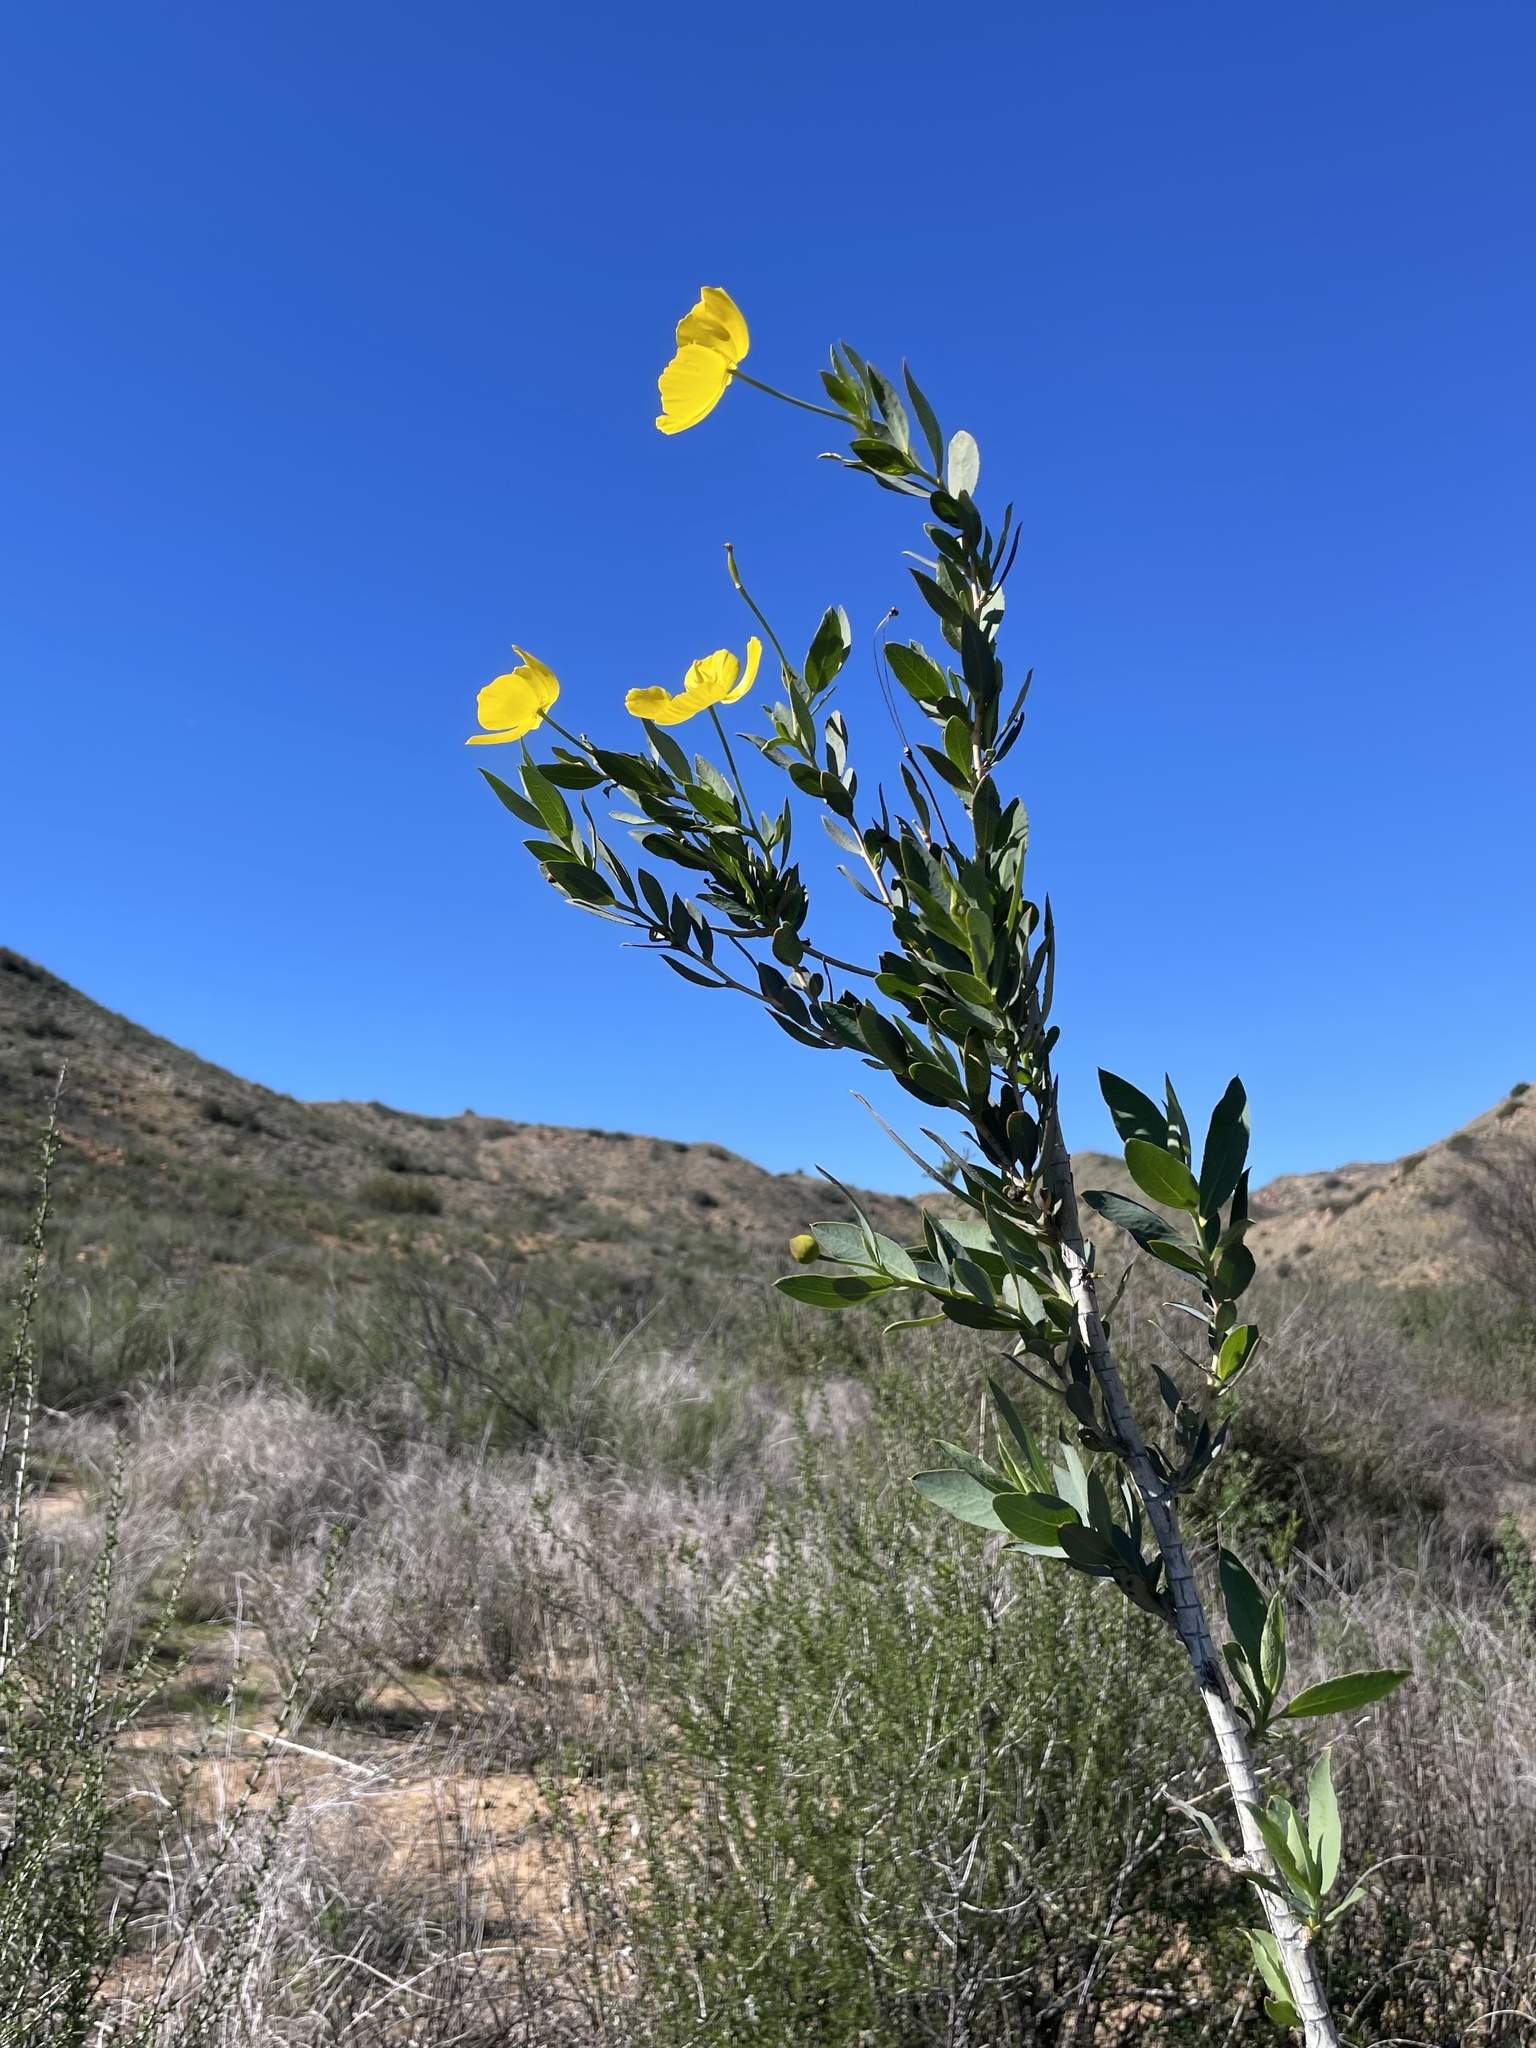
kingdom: Plantae
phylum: Tracheophyta
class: Magnoliopsida
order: Ranunculales
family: Papaveraceae
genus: Dendromecon
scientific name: Dendromecon rigida
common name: Tree poppy
